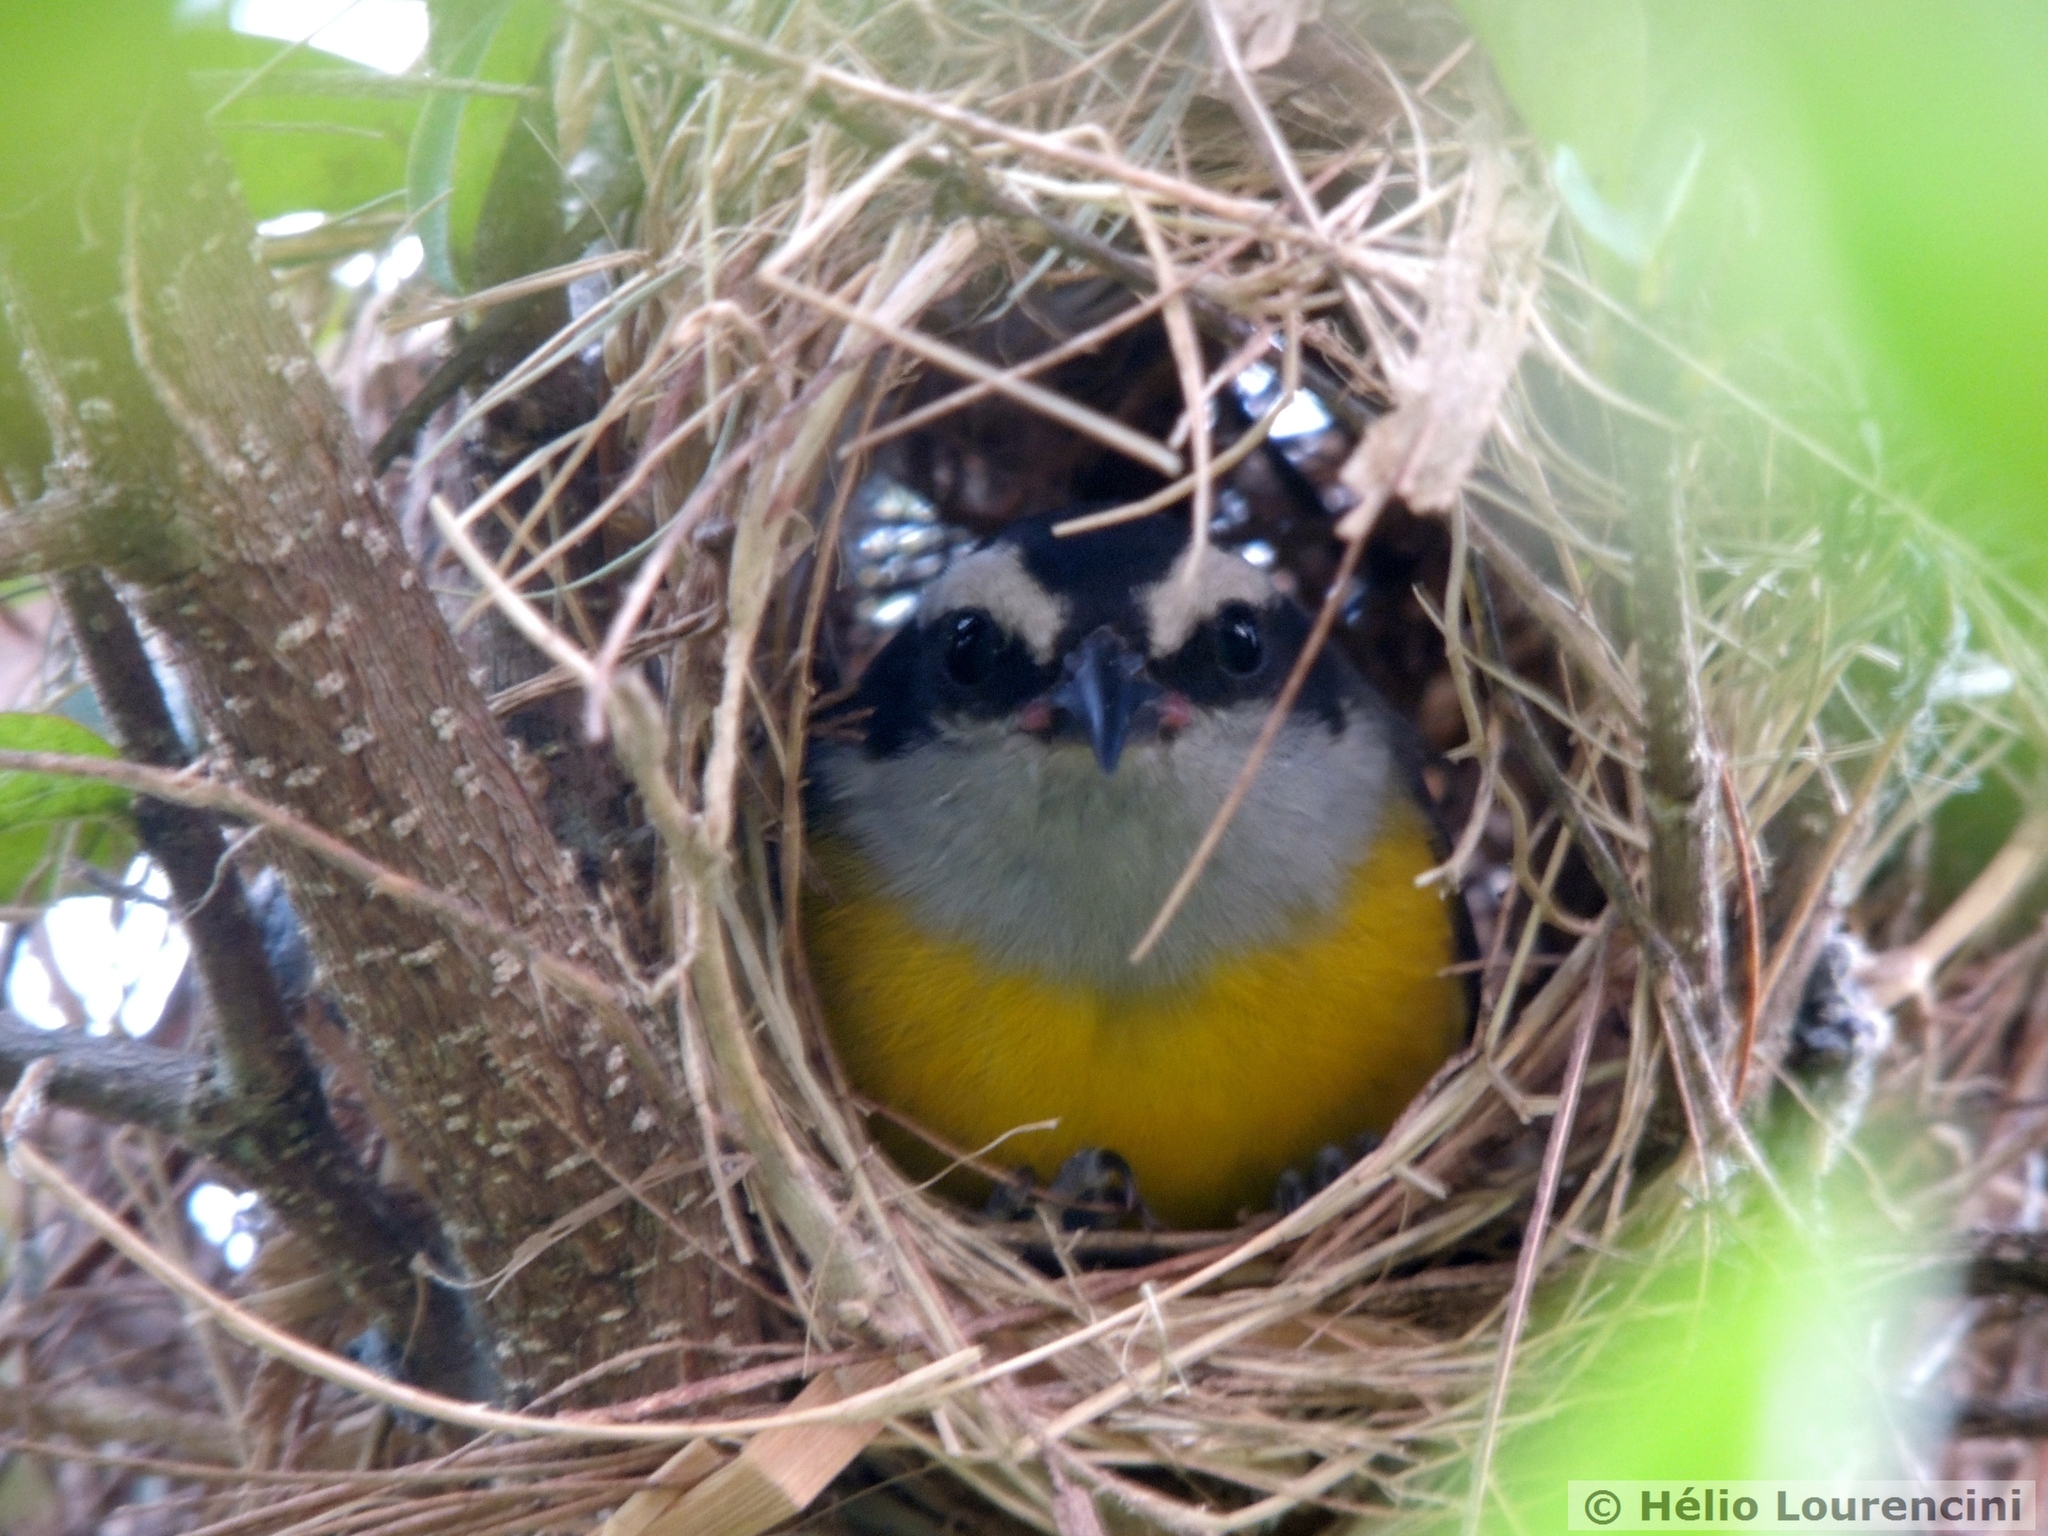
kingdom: Animalia
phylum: Chordata
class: Aves
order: Passeriformes
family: Thraupidae
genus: Coereba
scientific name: Coereba flaveola
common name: Bananaquit
